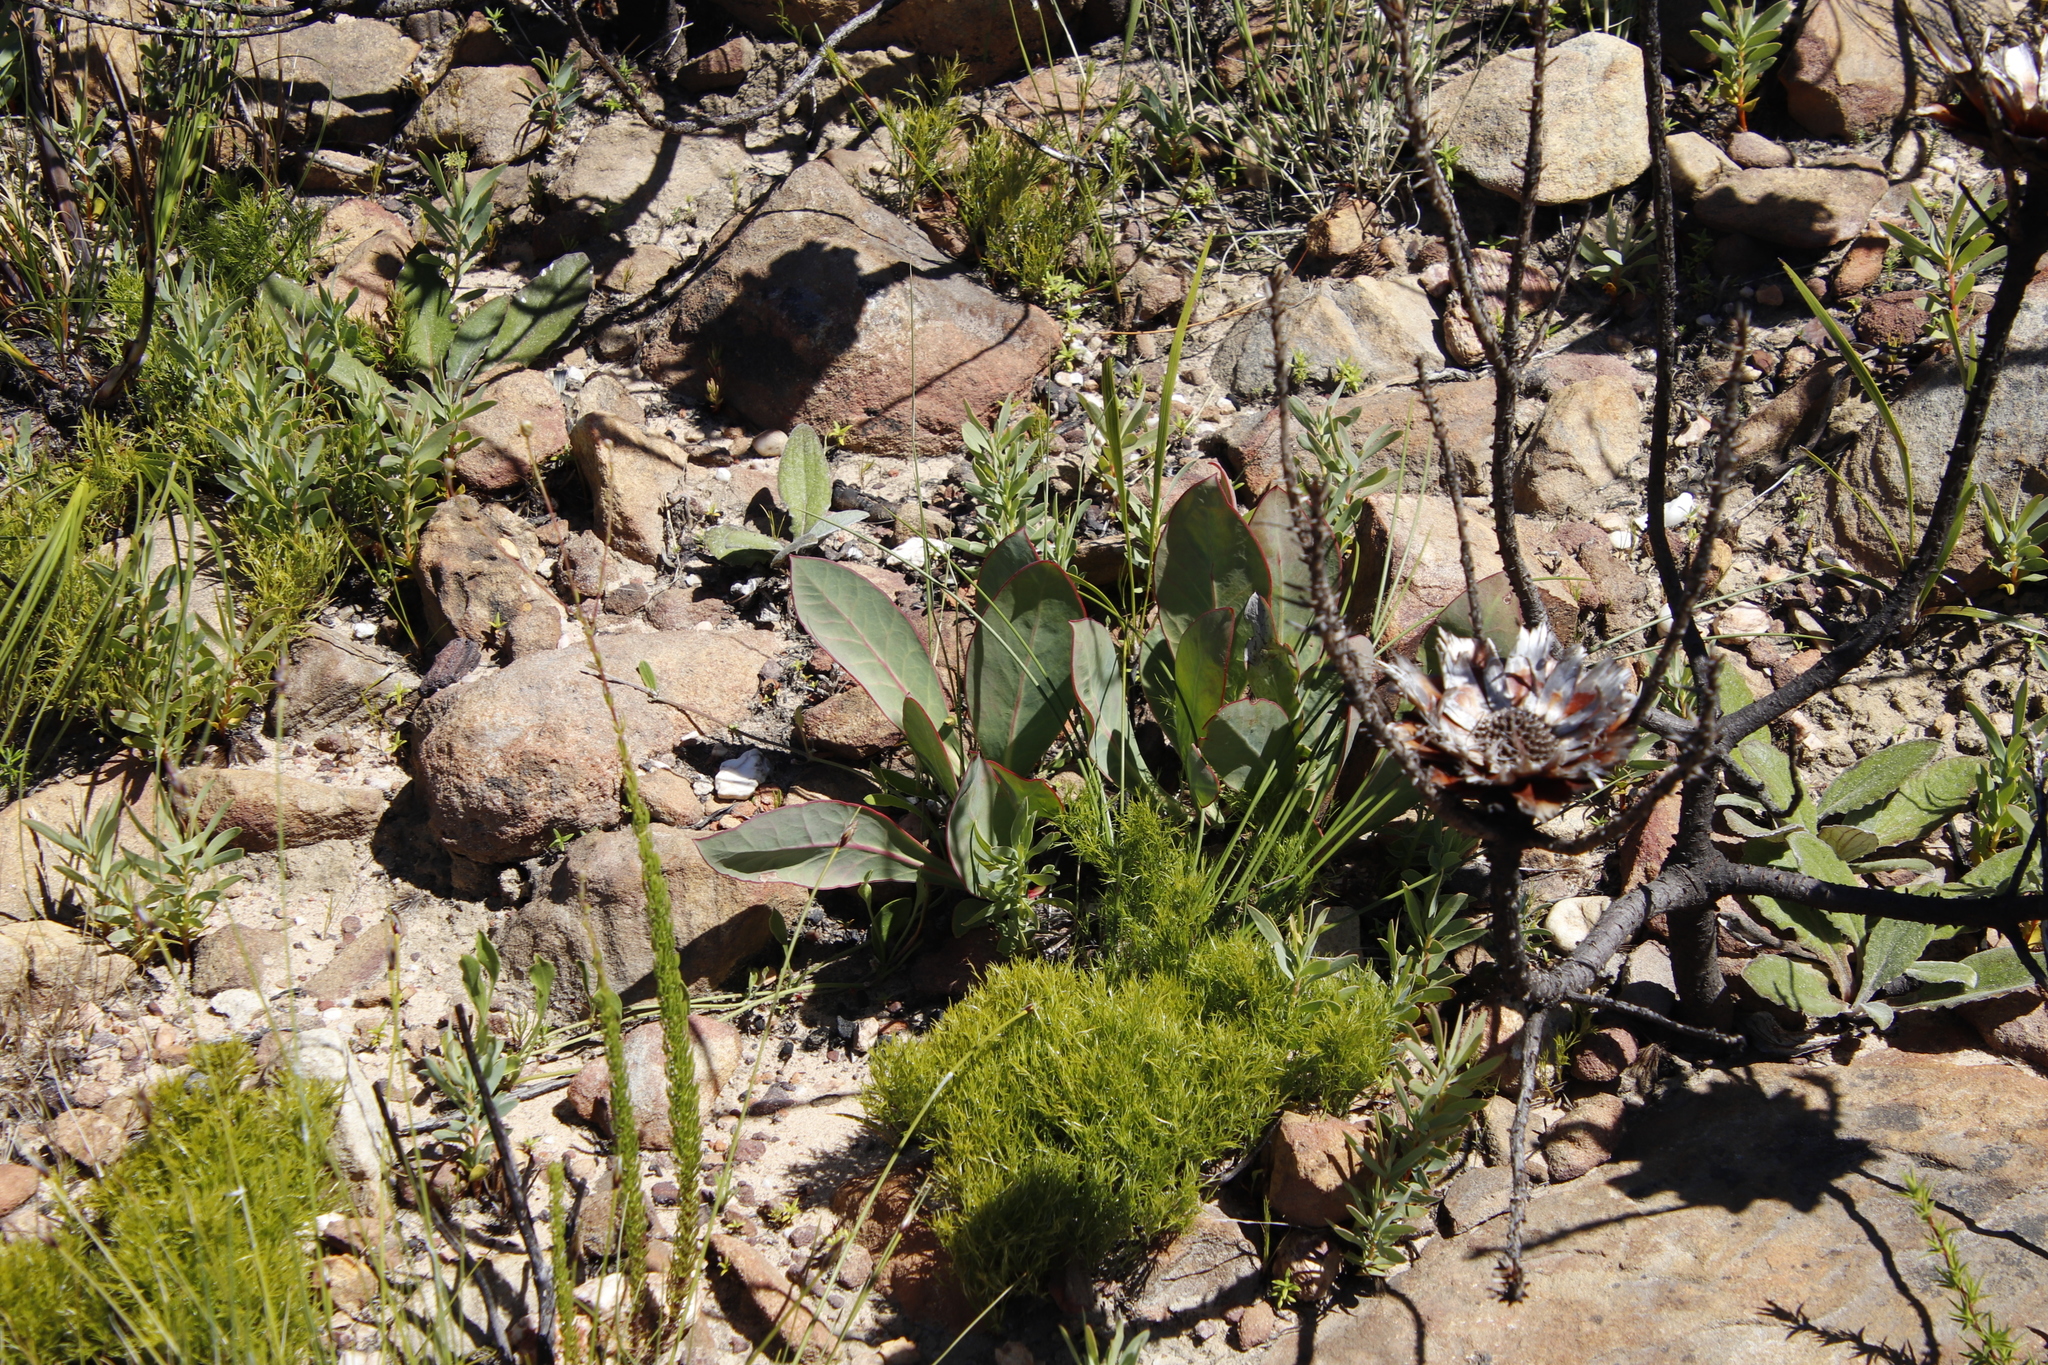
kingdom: Plantae
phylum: Tracheophyta
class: Magnoliopsida
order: Proteales
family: Proteaceae
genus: Protea
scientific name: Protea acaulos
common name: Common ground sugarbush
